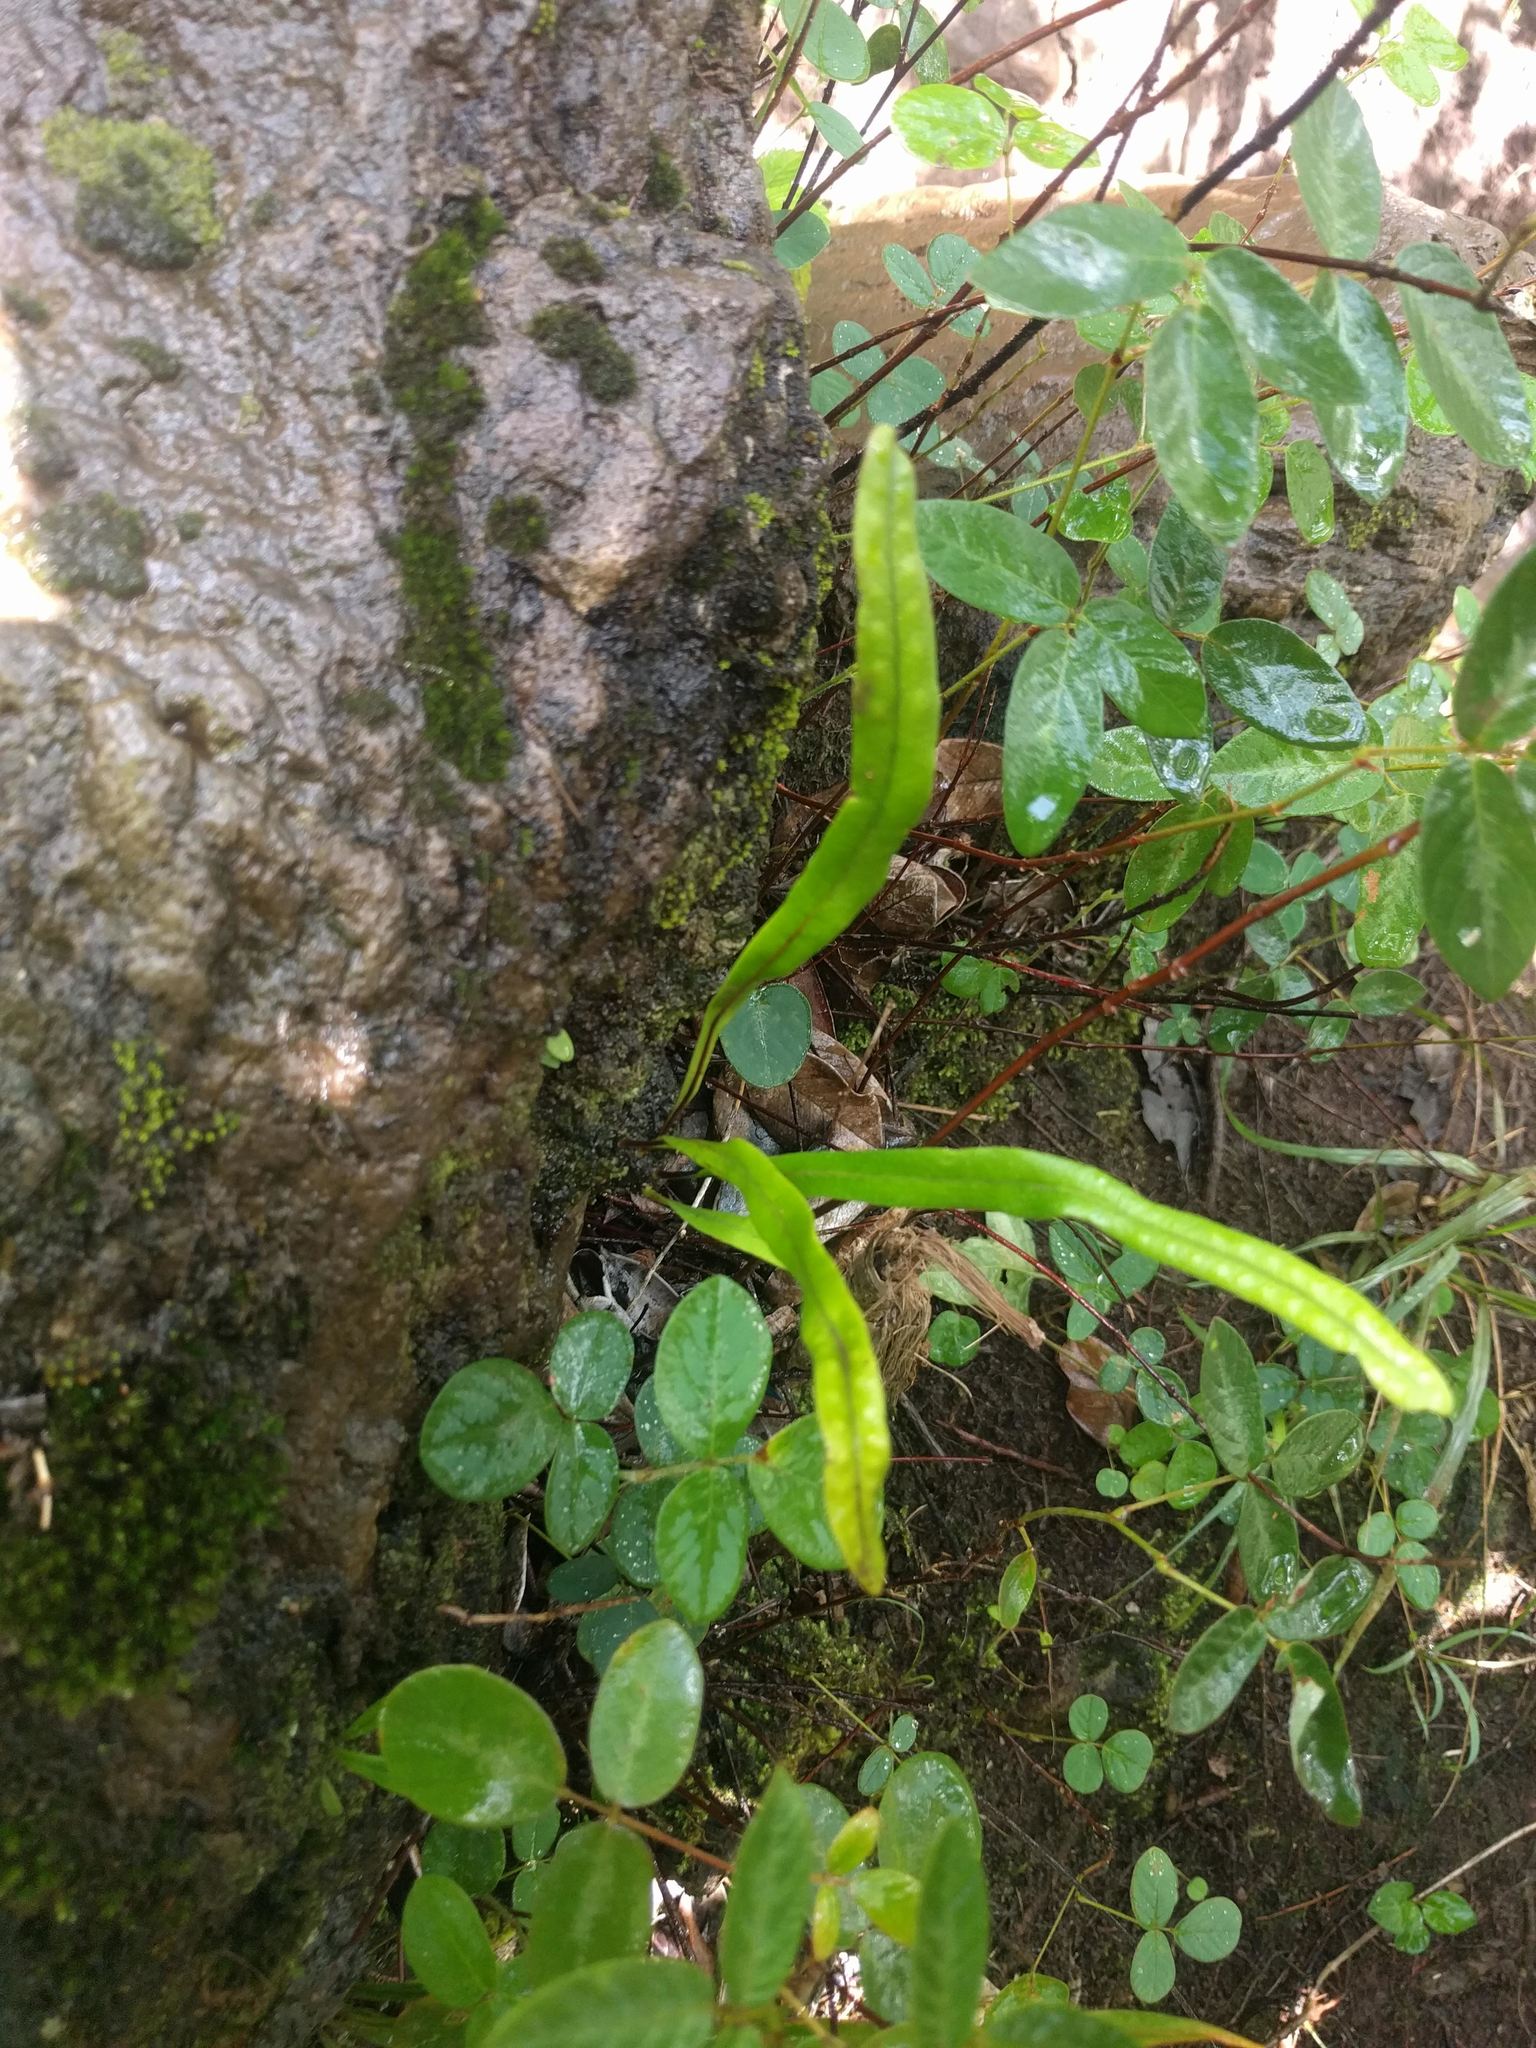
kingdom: Plantae
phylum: Tracheophyta
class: Polypodiopsida
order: Polypodiales
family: Polypodiaceae
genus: Lepisorus
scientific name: Lepisorus thunbergianus
